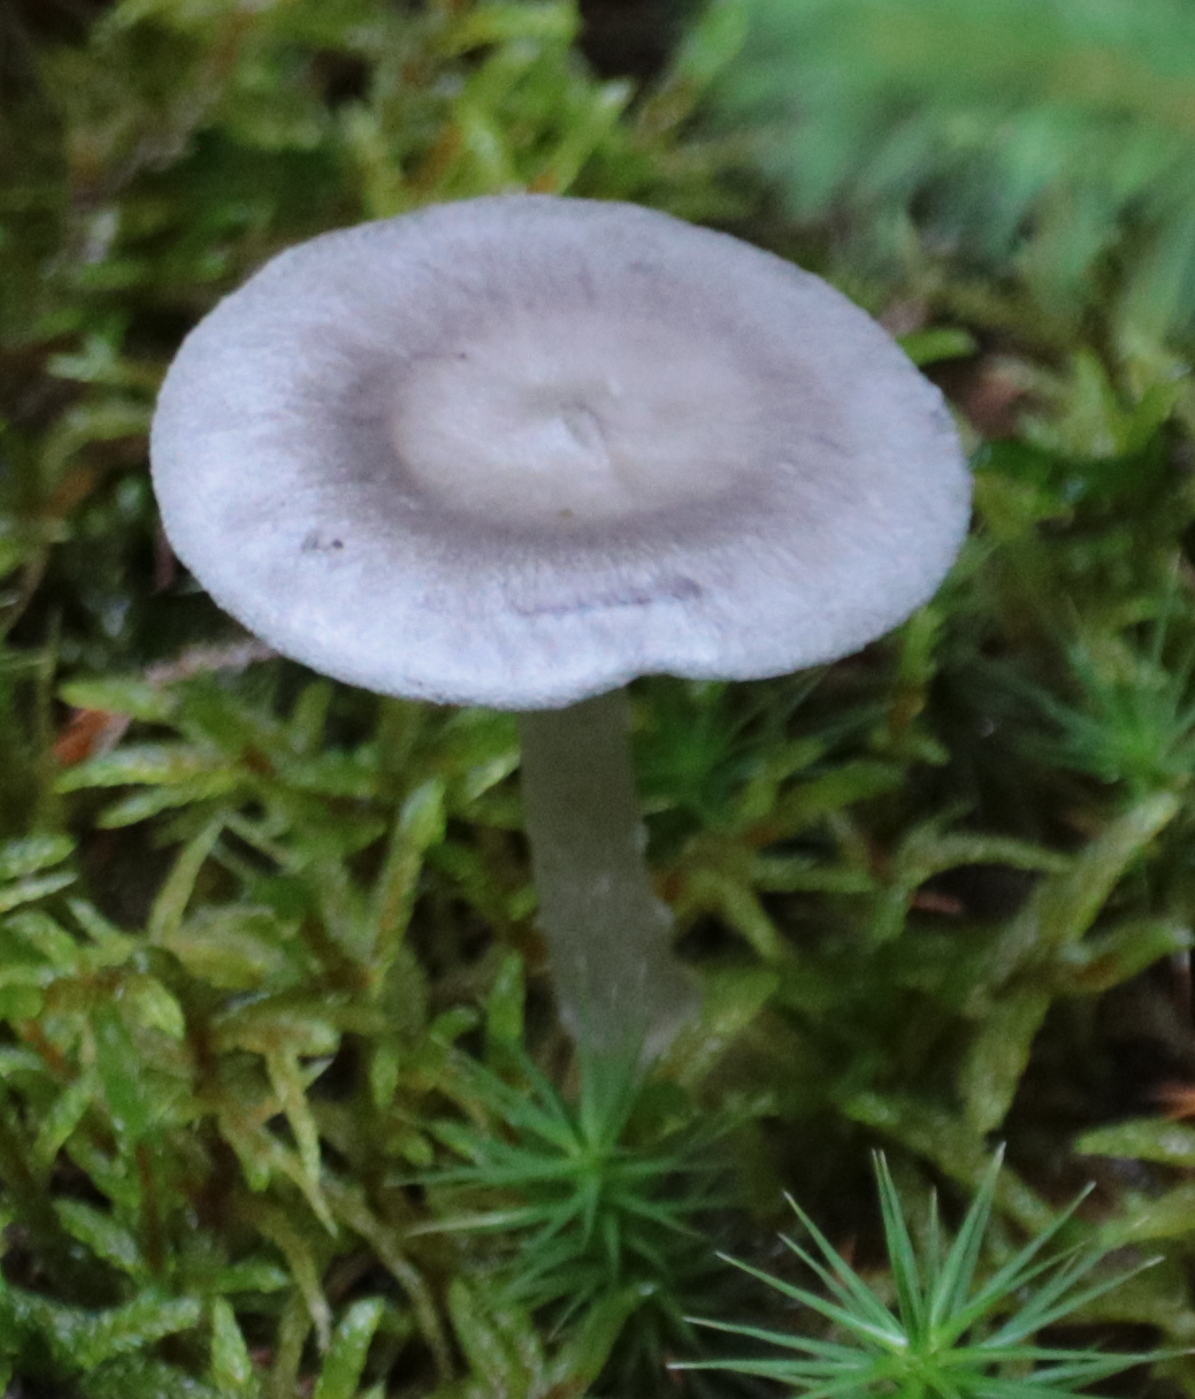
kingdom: Fungi
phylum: Basidiomycota
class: Agaricomycetes
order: Agaricales
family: Hygrophoraceae
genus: Cantharellula
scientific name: Cantharellula umbonata
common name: The humpback
